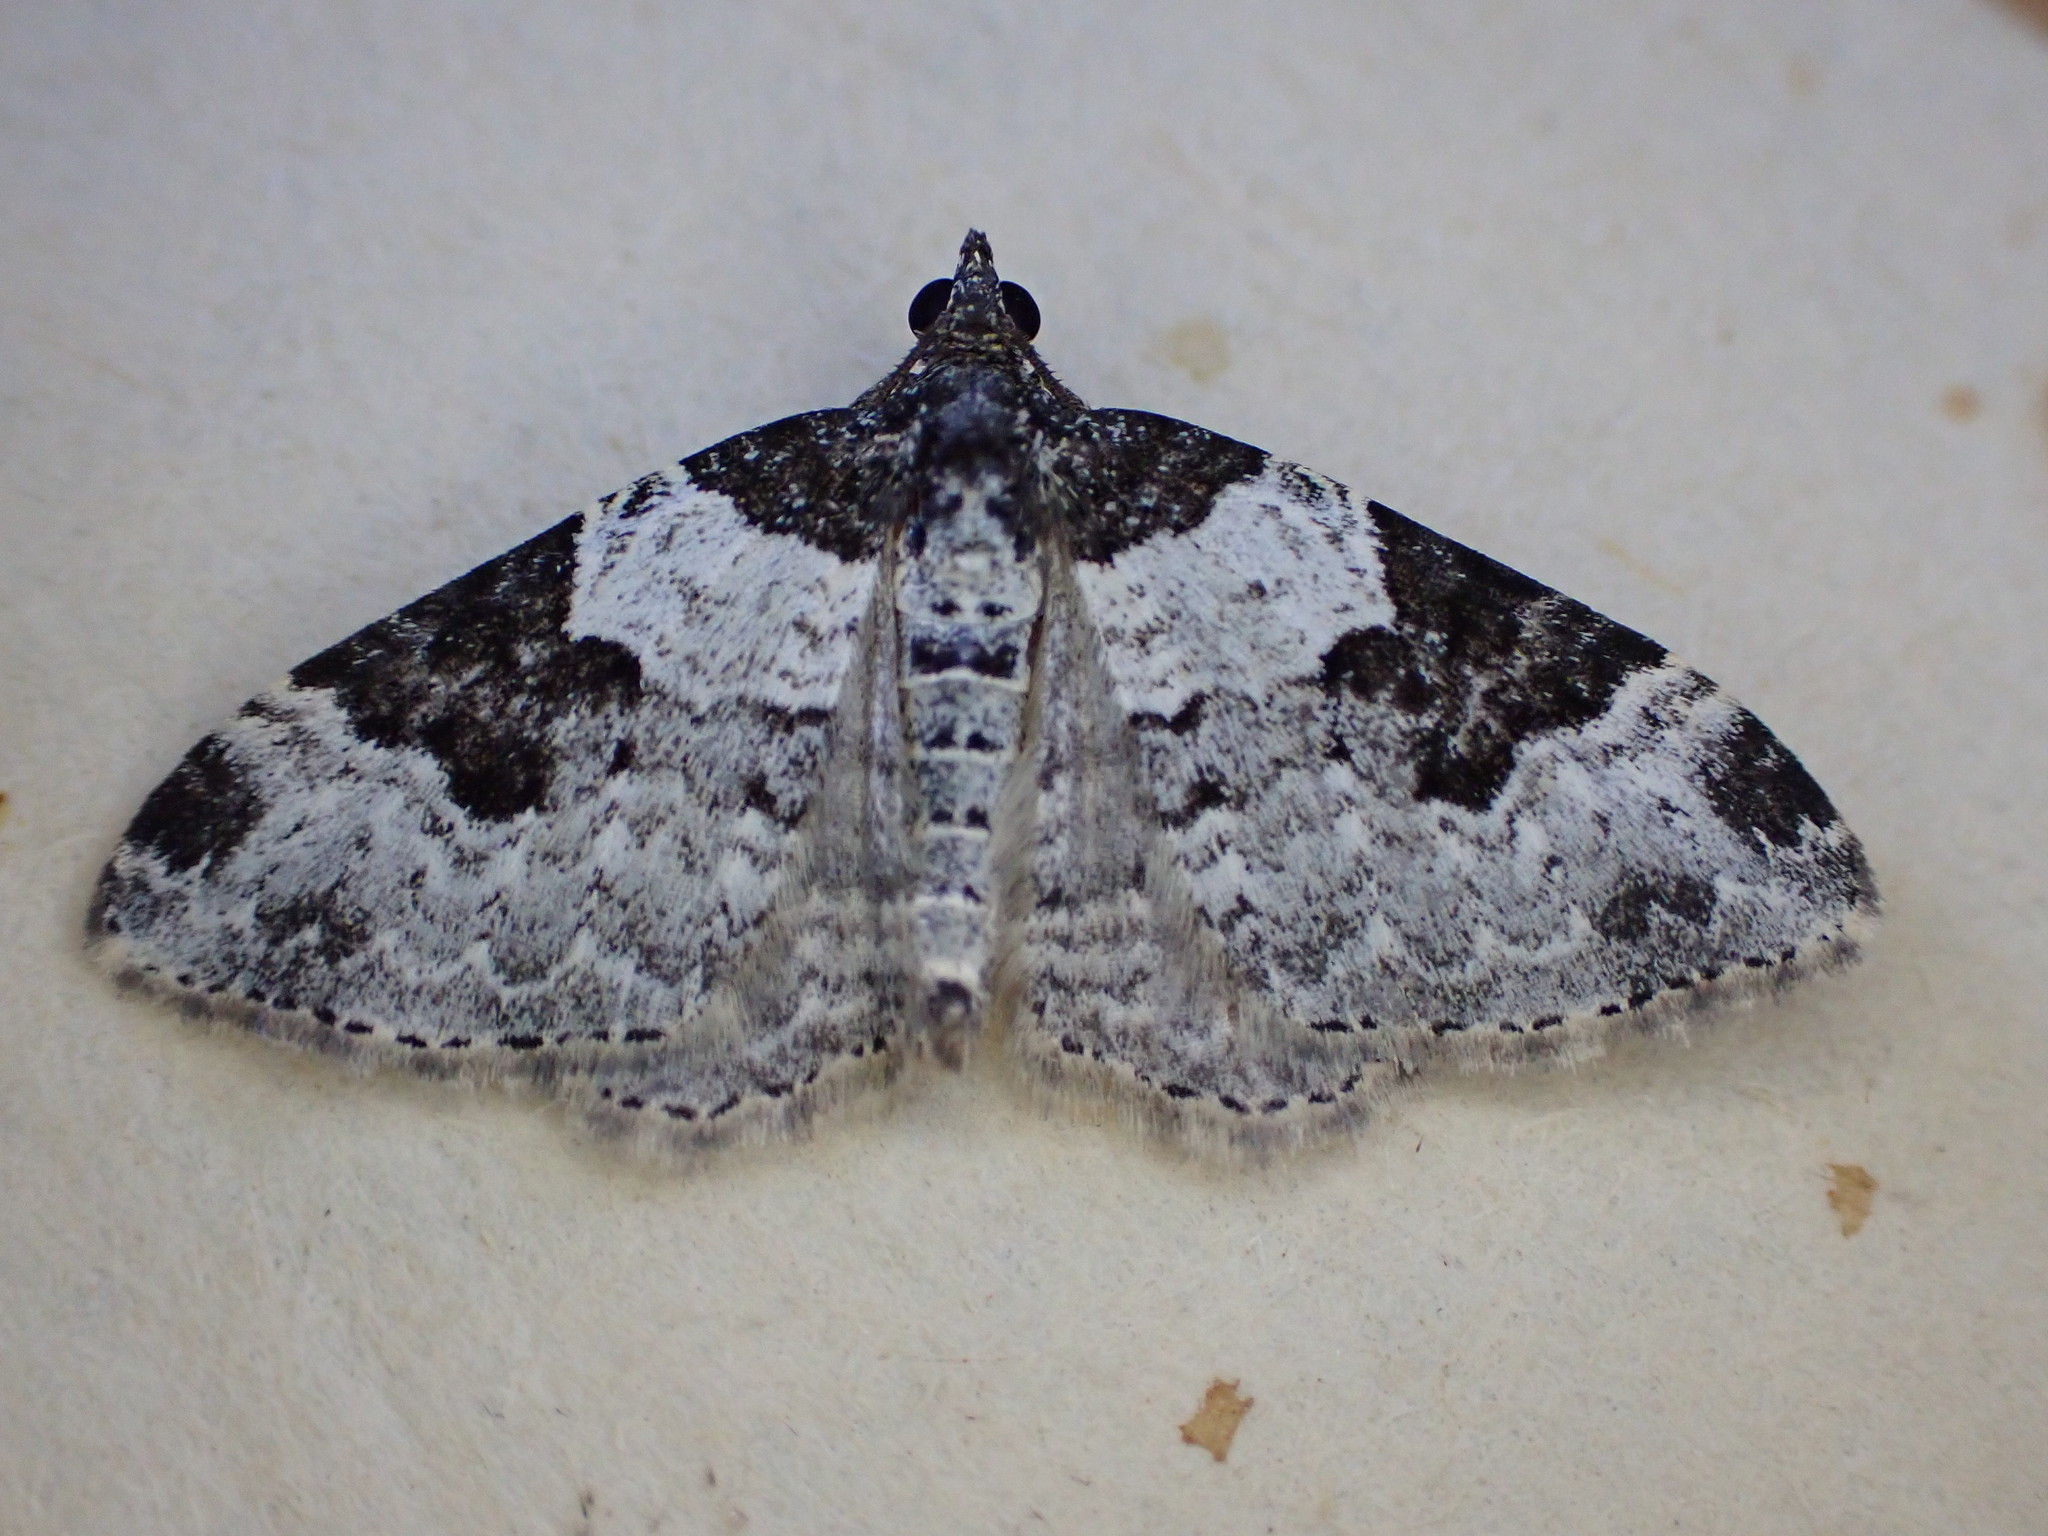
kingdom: Animalia
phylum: Arthropoda
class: Insecta
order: Lepidoptera
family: Geometridae
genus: Xanthorhoe
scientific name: Xanthorhoe fluctuata
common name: Garden carpet
